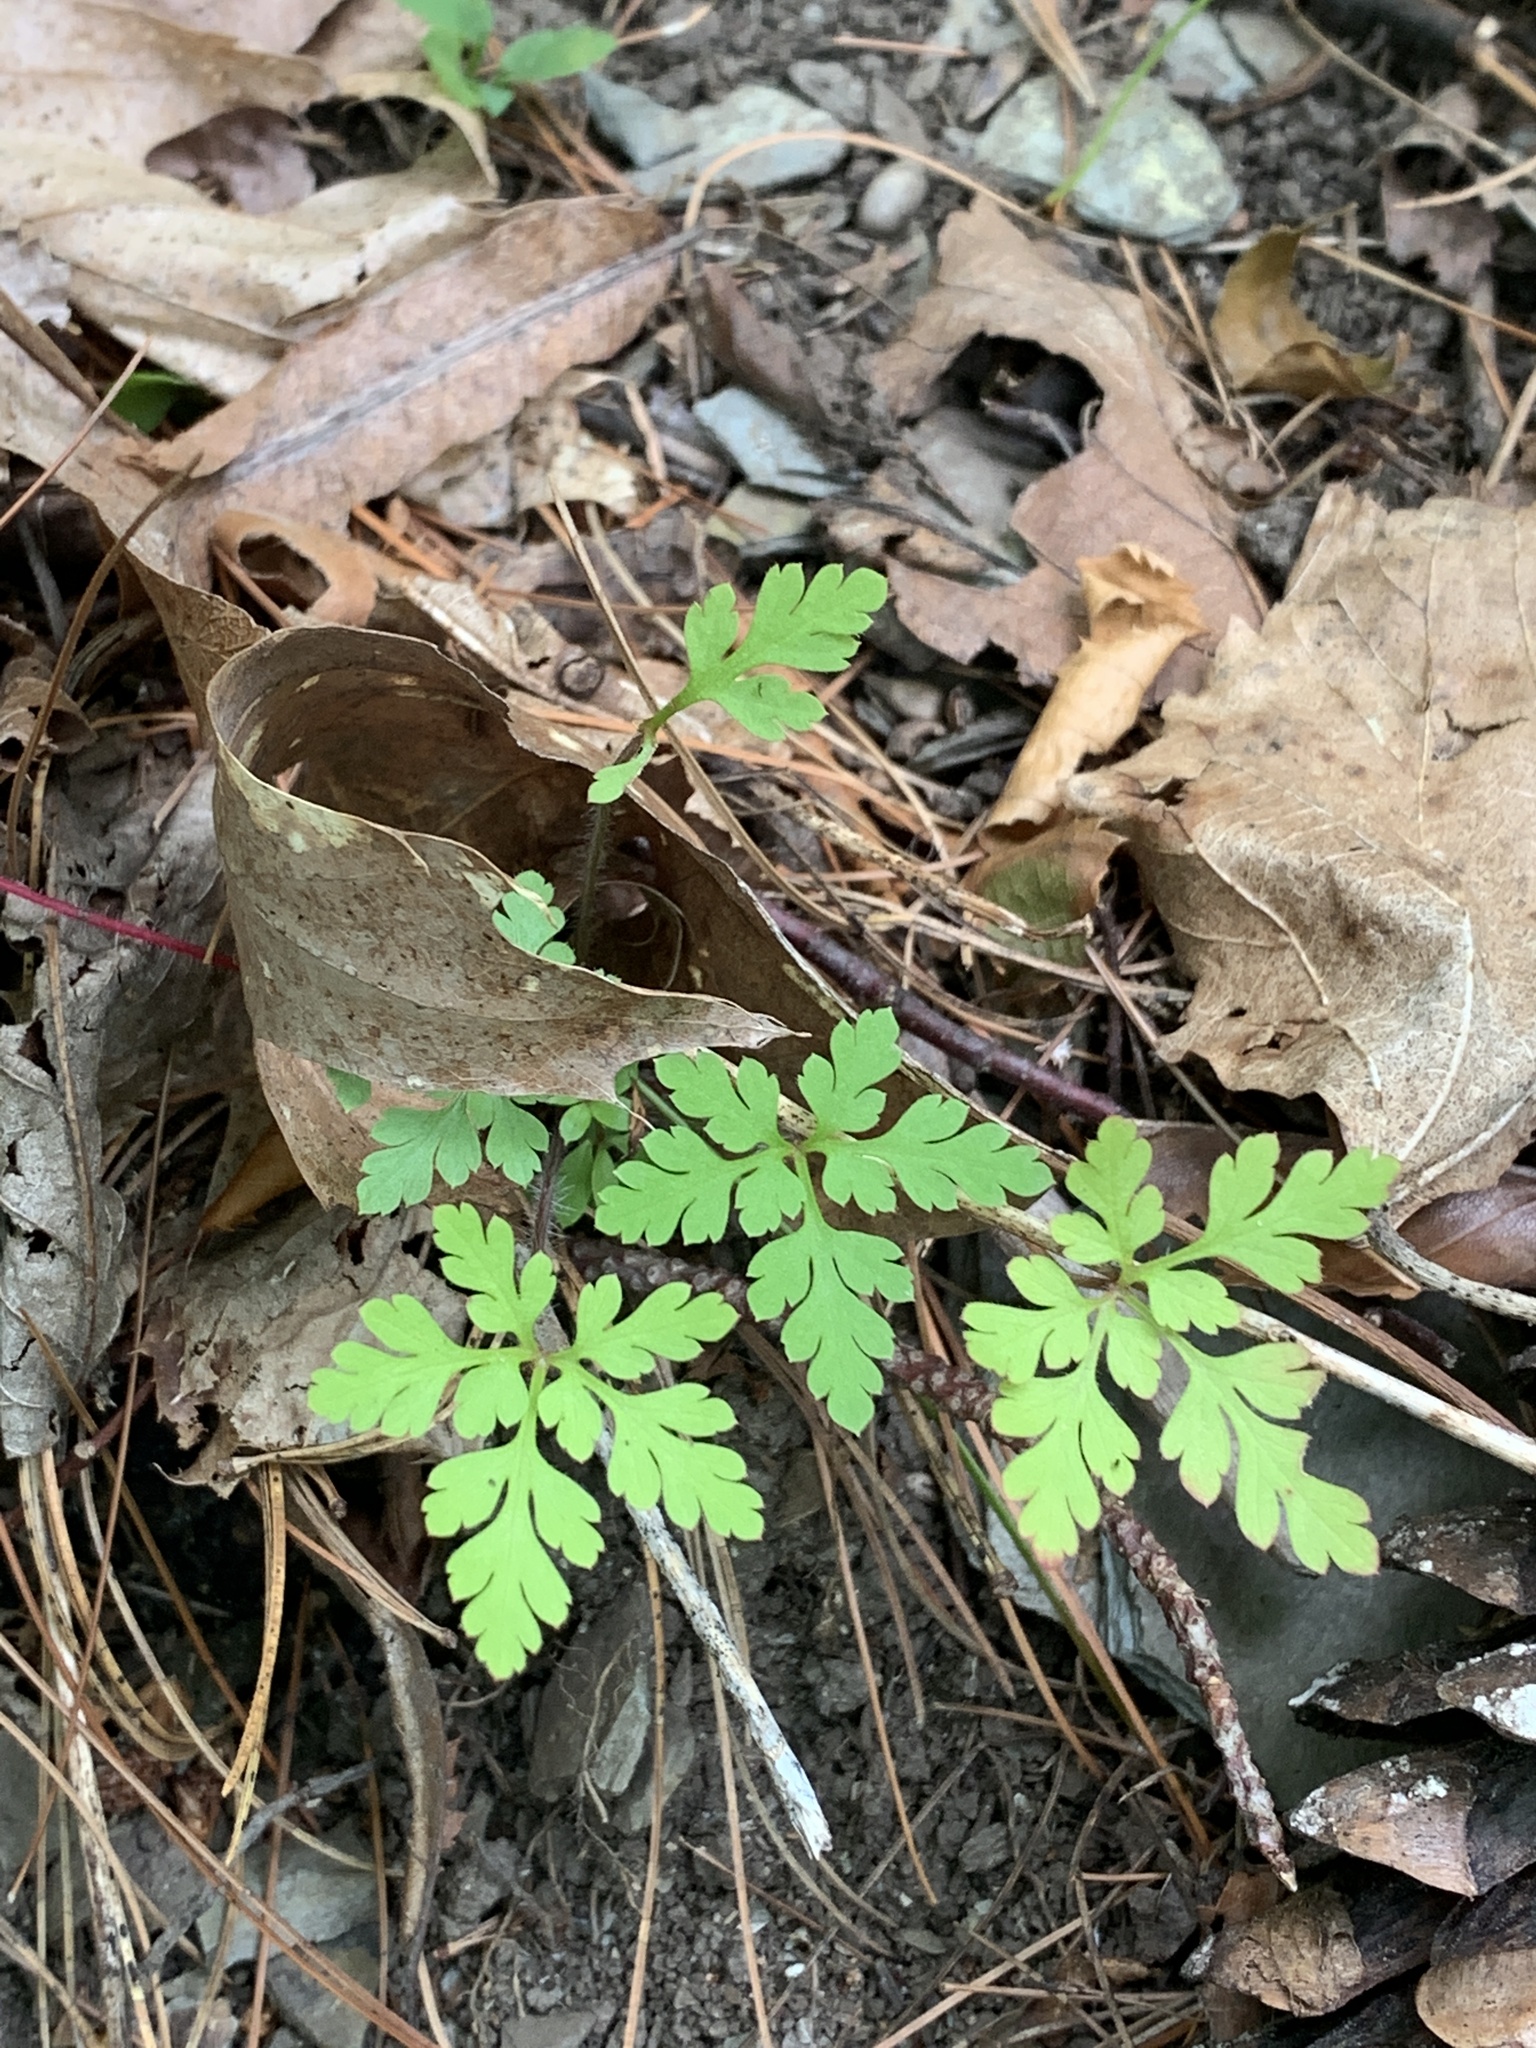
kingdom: Plantae
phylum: Tracheophyta
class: Magnoliopsida
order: Geraniales
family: Geraniaceae
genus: Geranium
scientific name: Geranium robertianum
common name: Herb-robert
